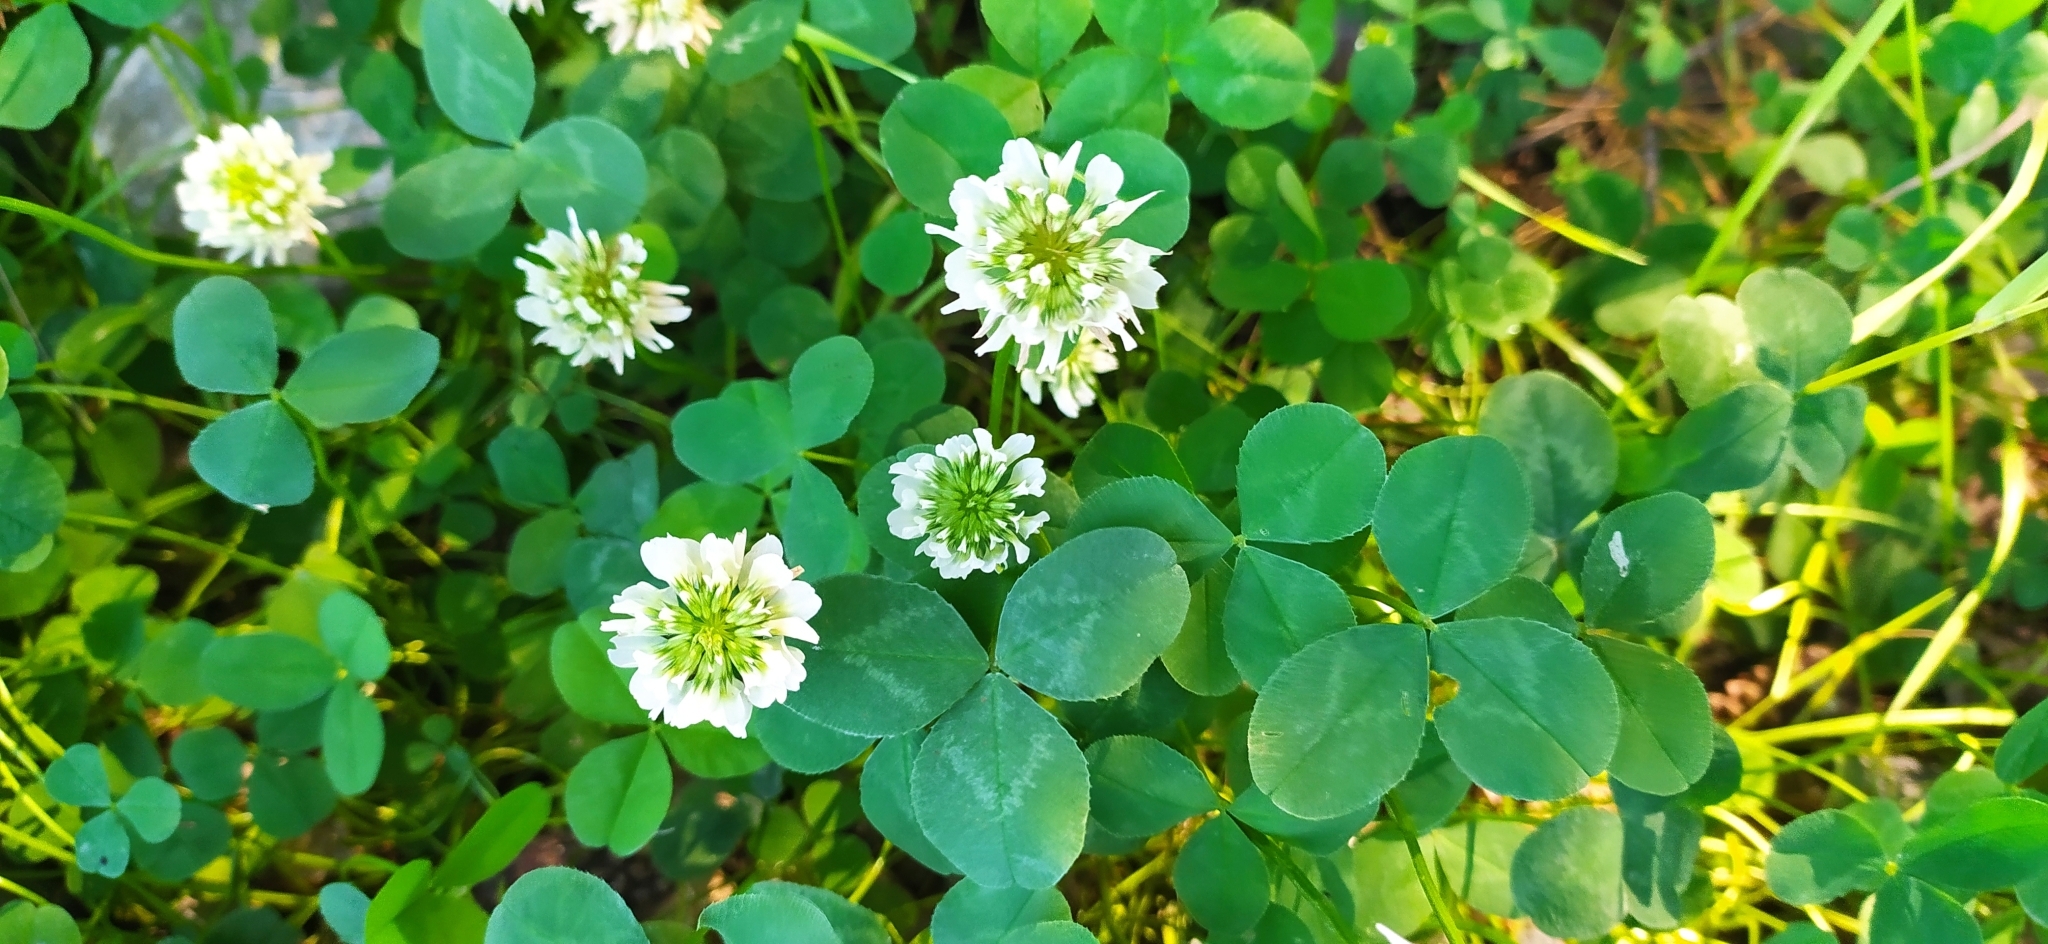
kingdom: Plantae
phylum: Tracheophyta
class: Magnoliopsida
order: Fabales
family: Fabaceae
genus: Trifolium
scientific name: Trifolium repens
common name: White clover
